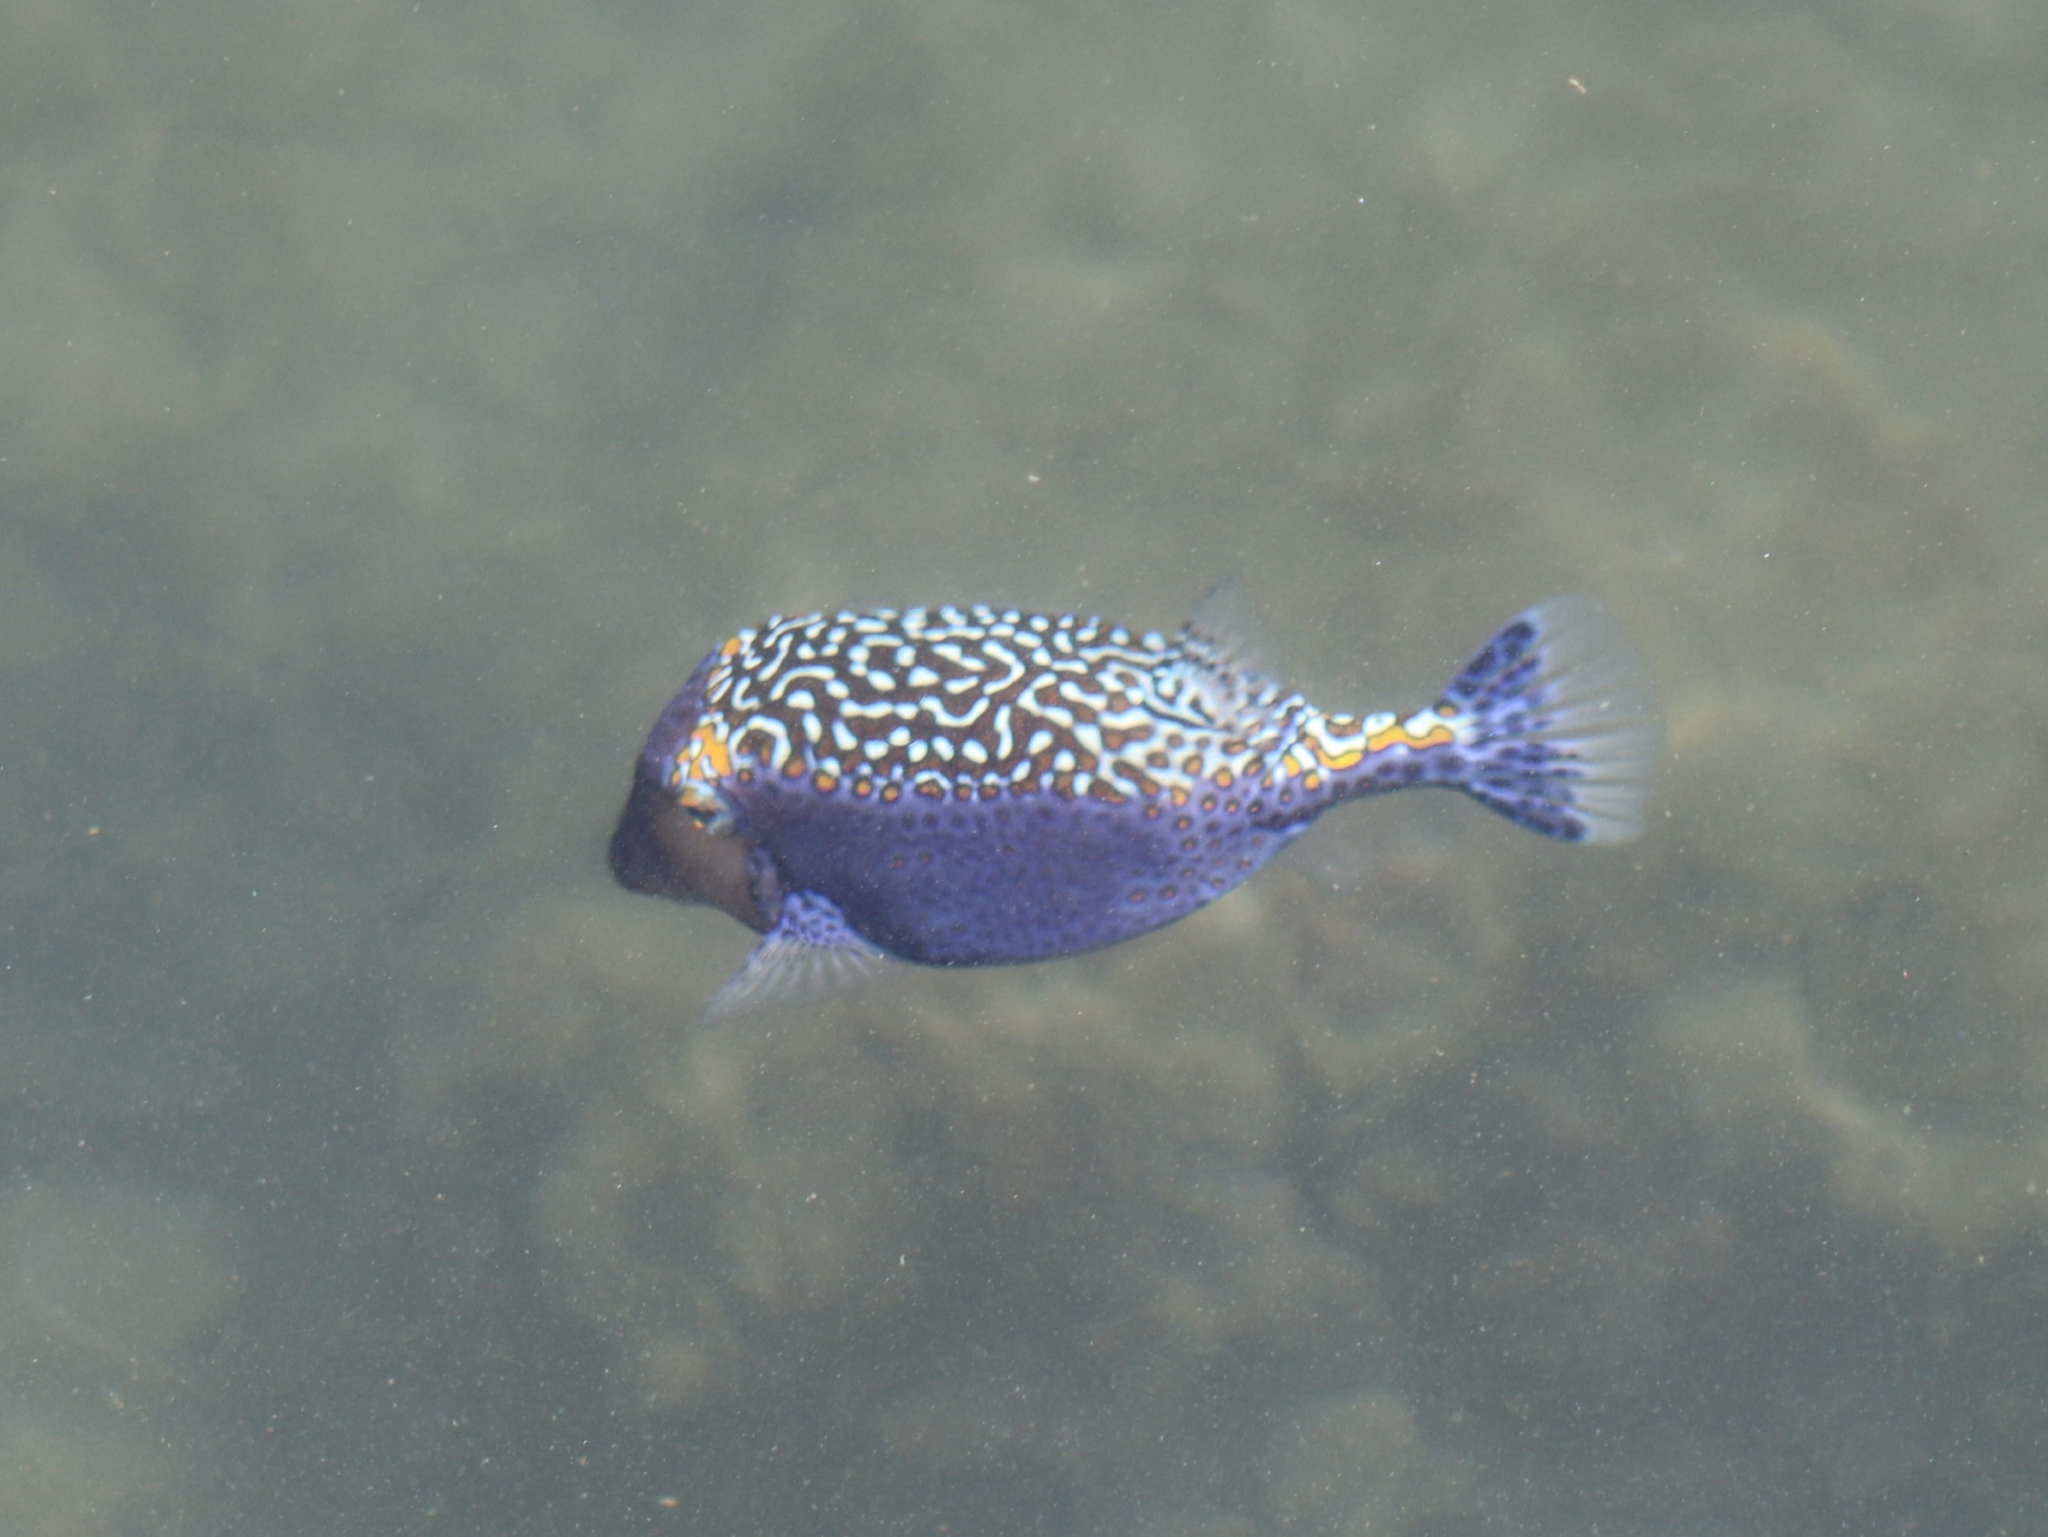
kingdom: Animalia
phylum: Chordata
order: Tetraodontiformes
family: Ostraciidae
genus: Ostracion
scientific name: Ostracion meleagris
